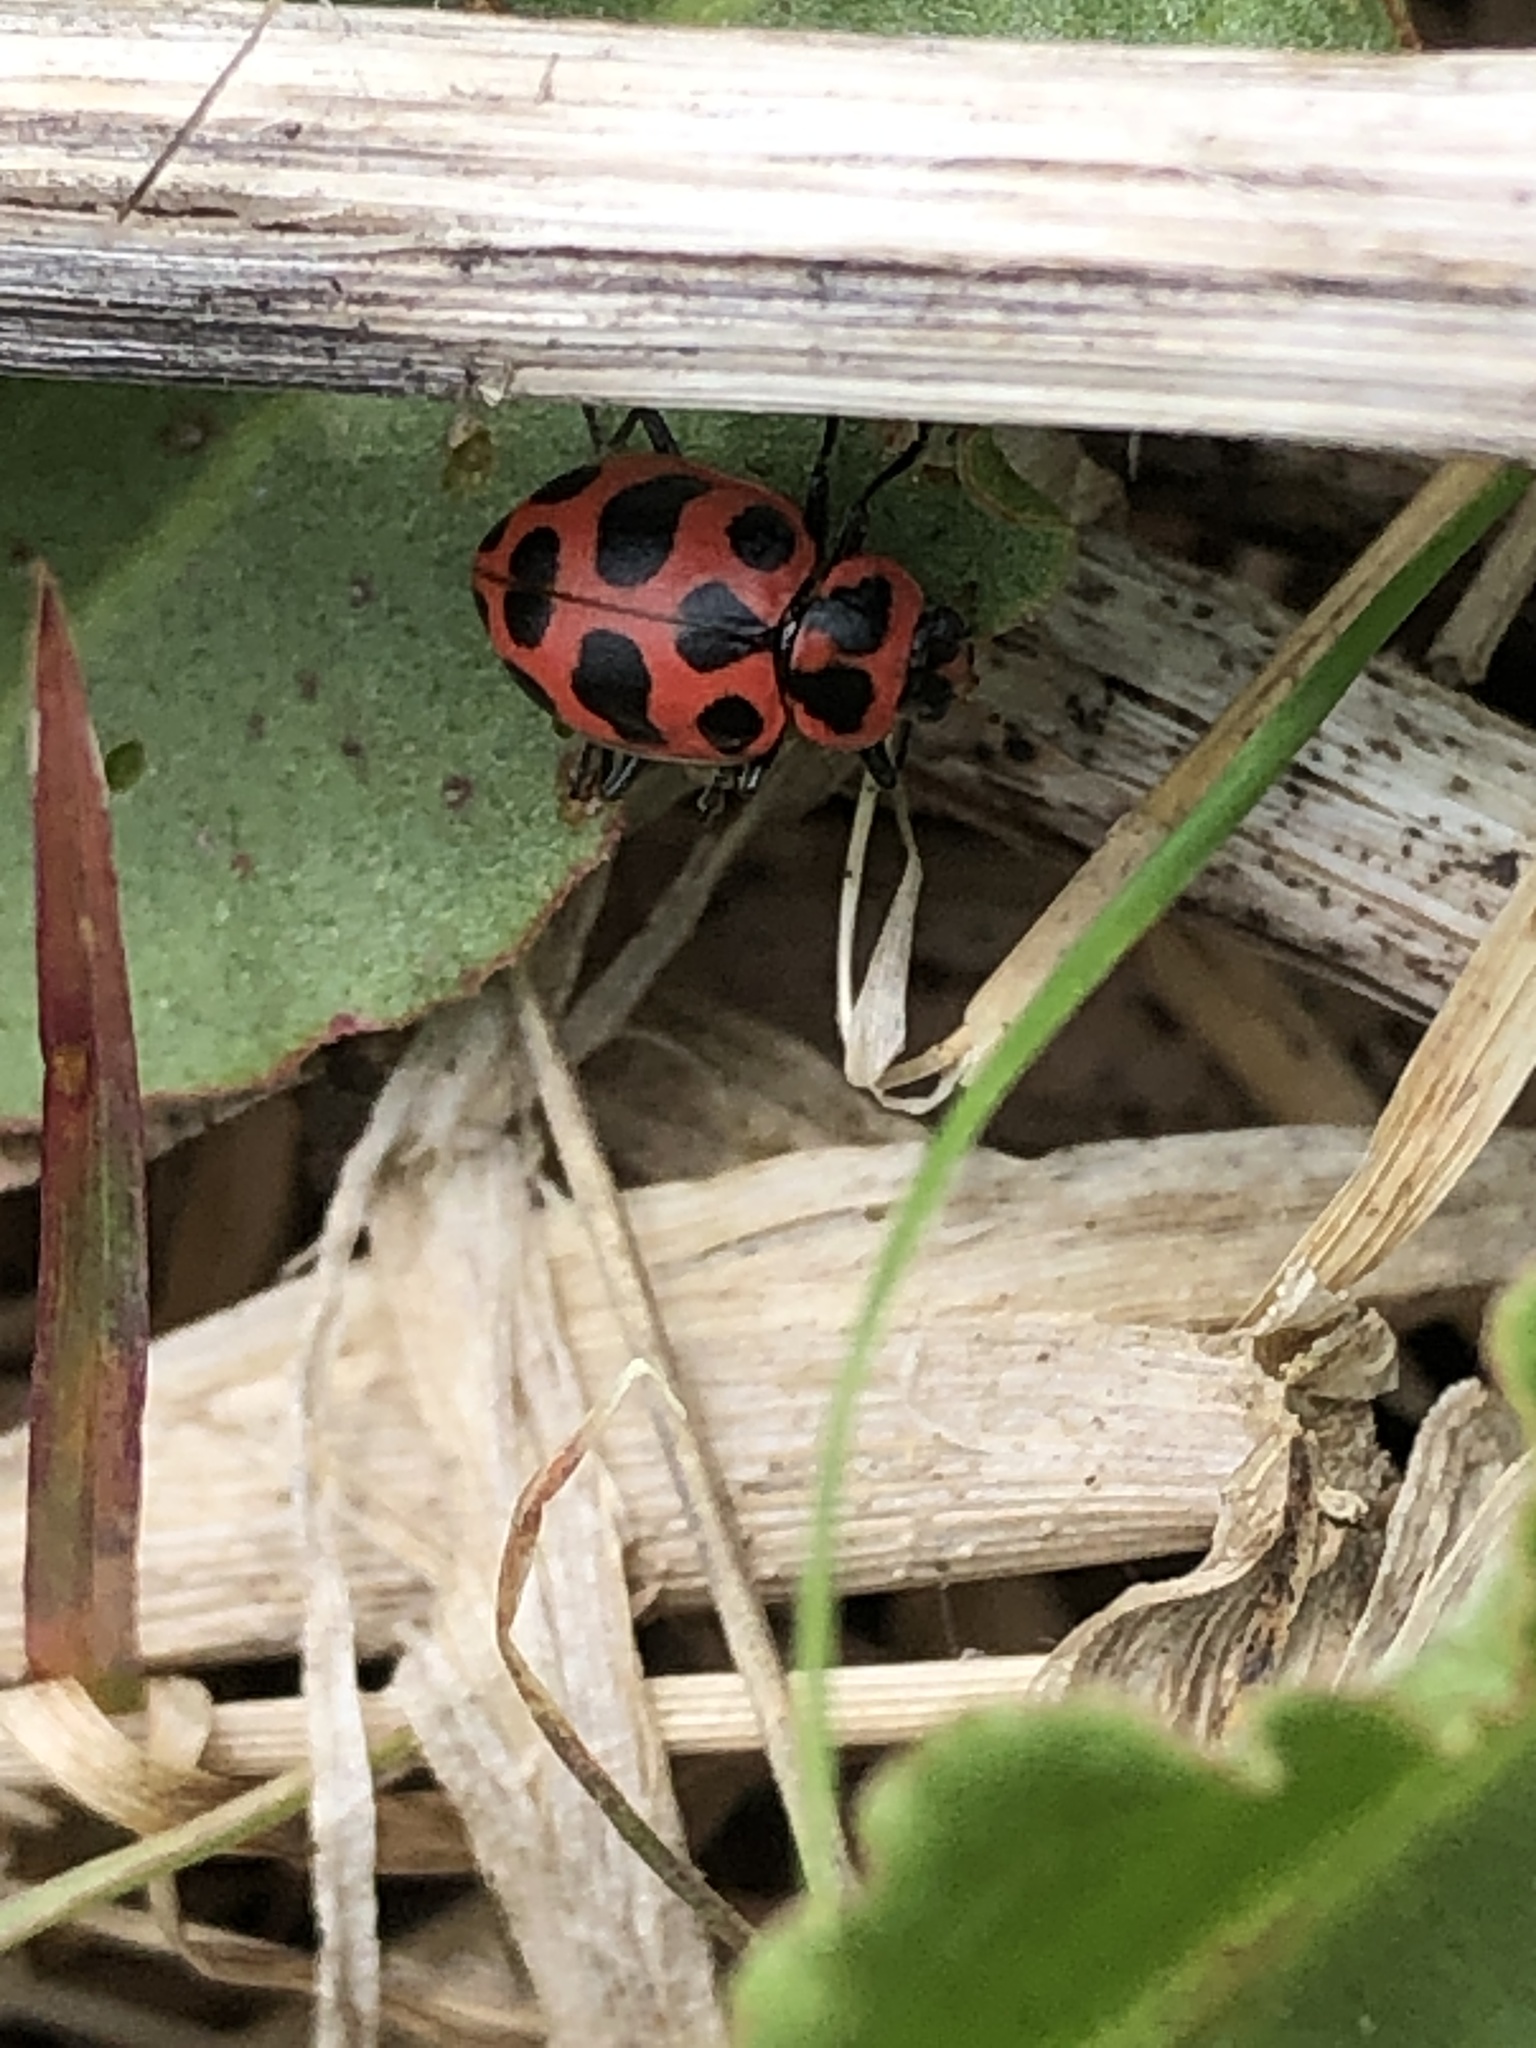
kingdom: Animalia
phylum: Arthropoda
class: Insecta
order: Coleoptera
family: Coccinellidae
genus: Coleomegilla
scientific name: Coleomegilla maculata
